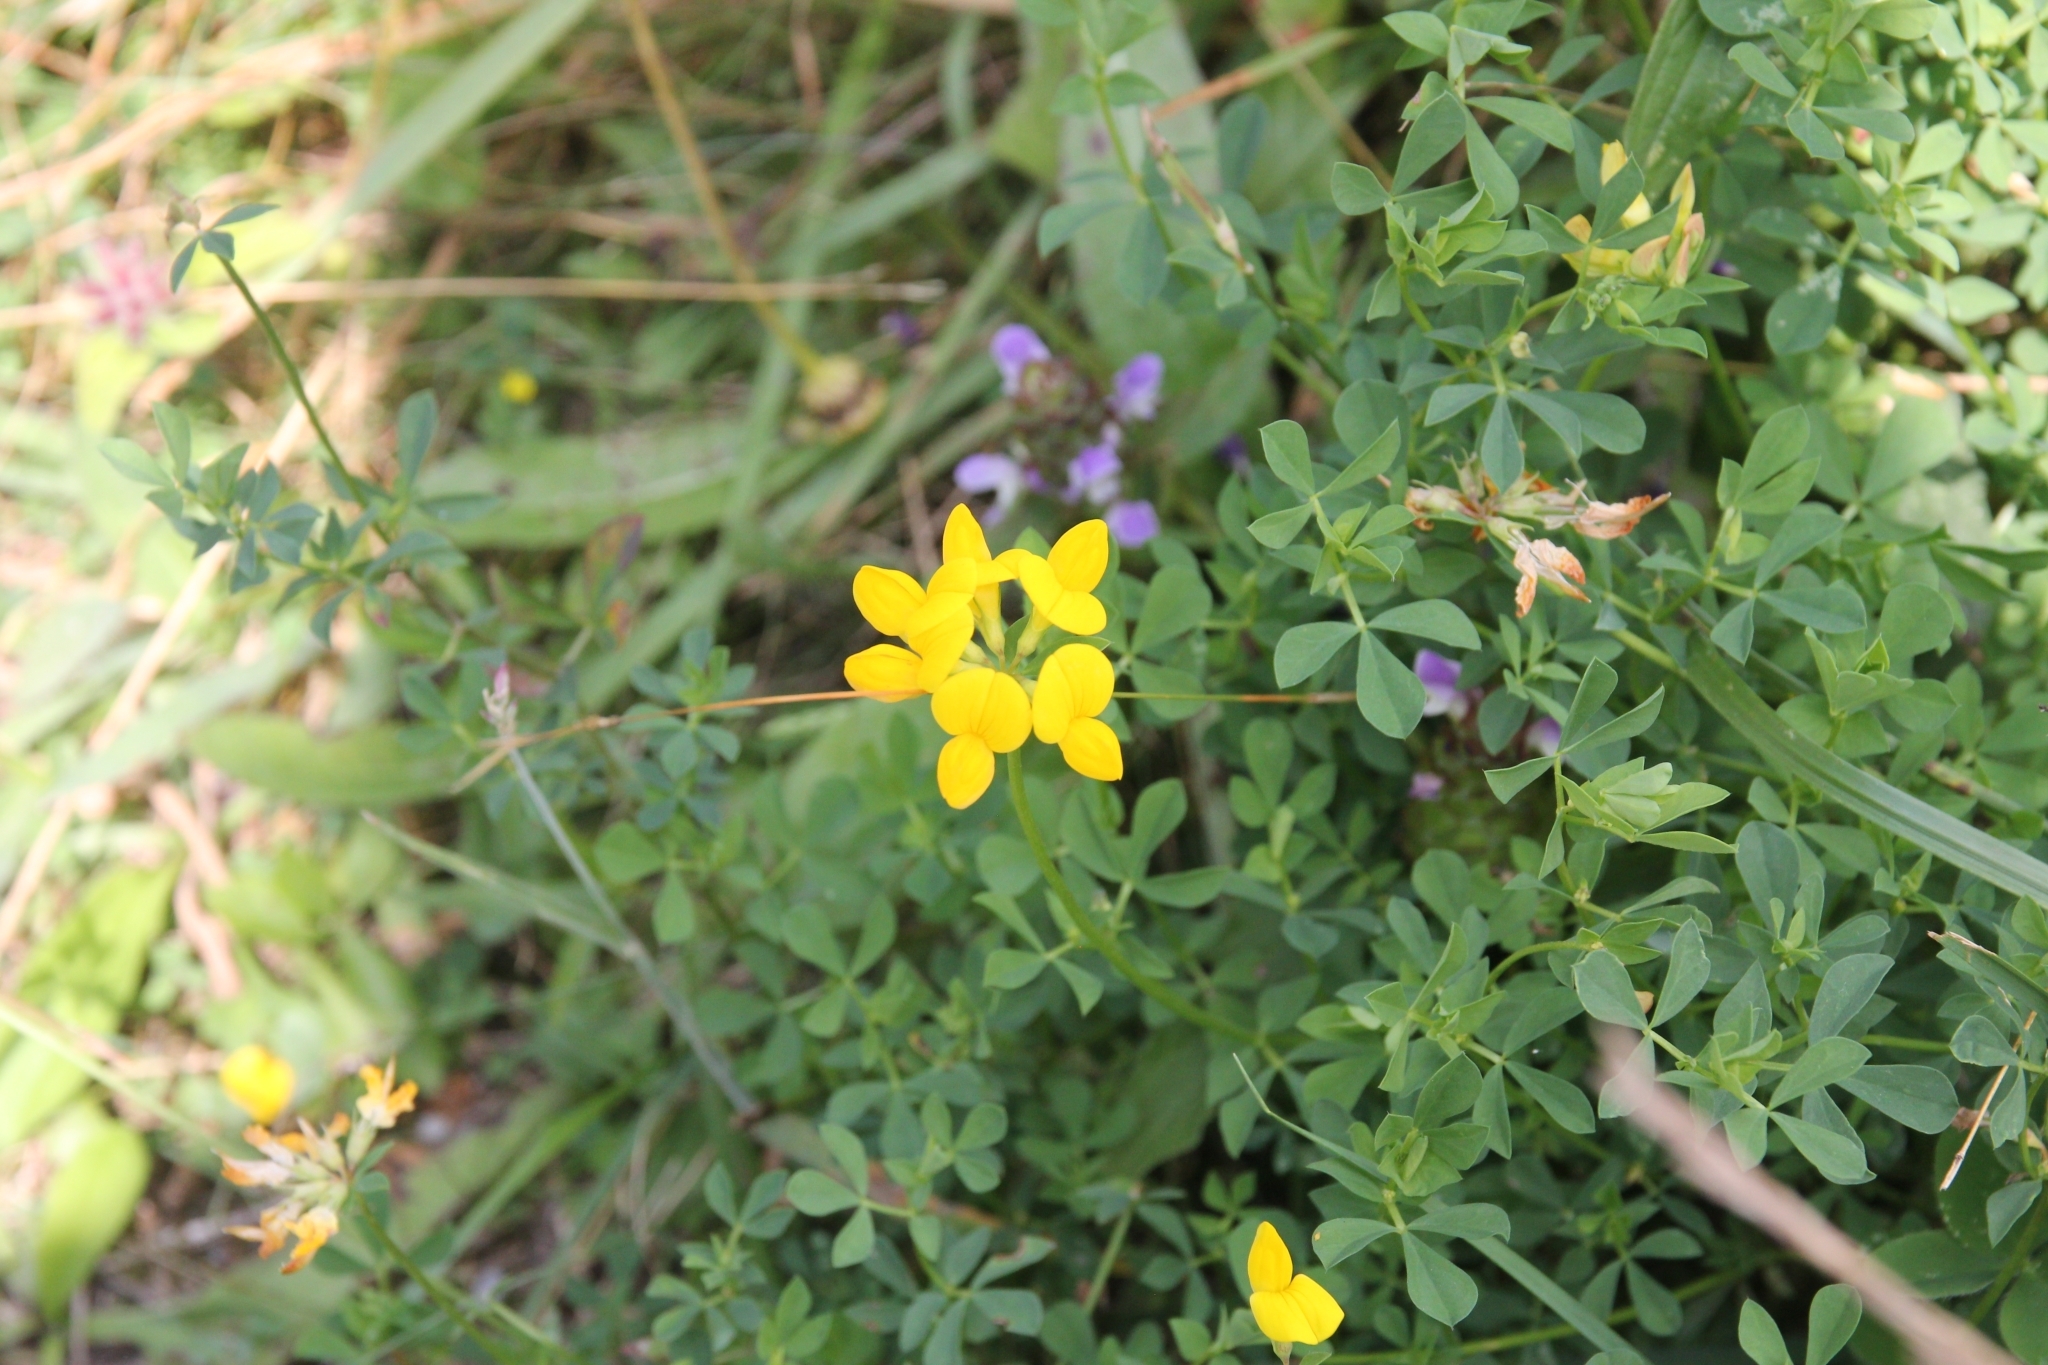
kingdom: Plantae
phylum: Tracheophyta
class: Magnoliopsida
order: Fabales
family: Fabaceae
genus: Lotus
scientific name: Lotus corniculatus
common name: Common bird's-foot-trefoil
